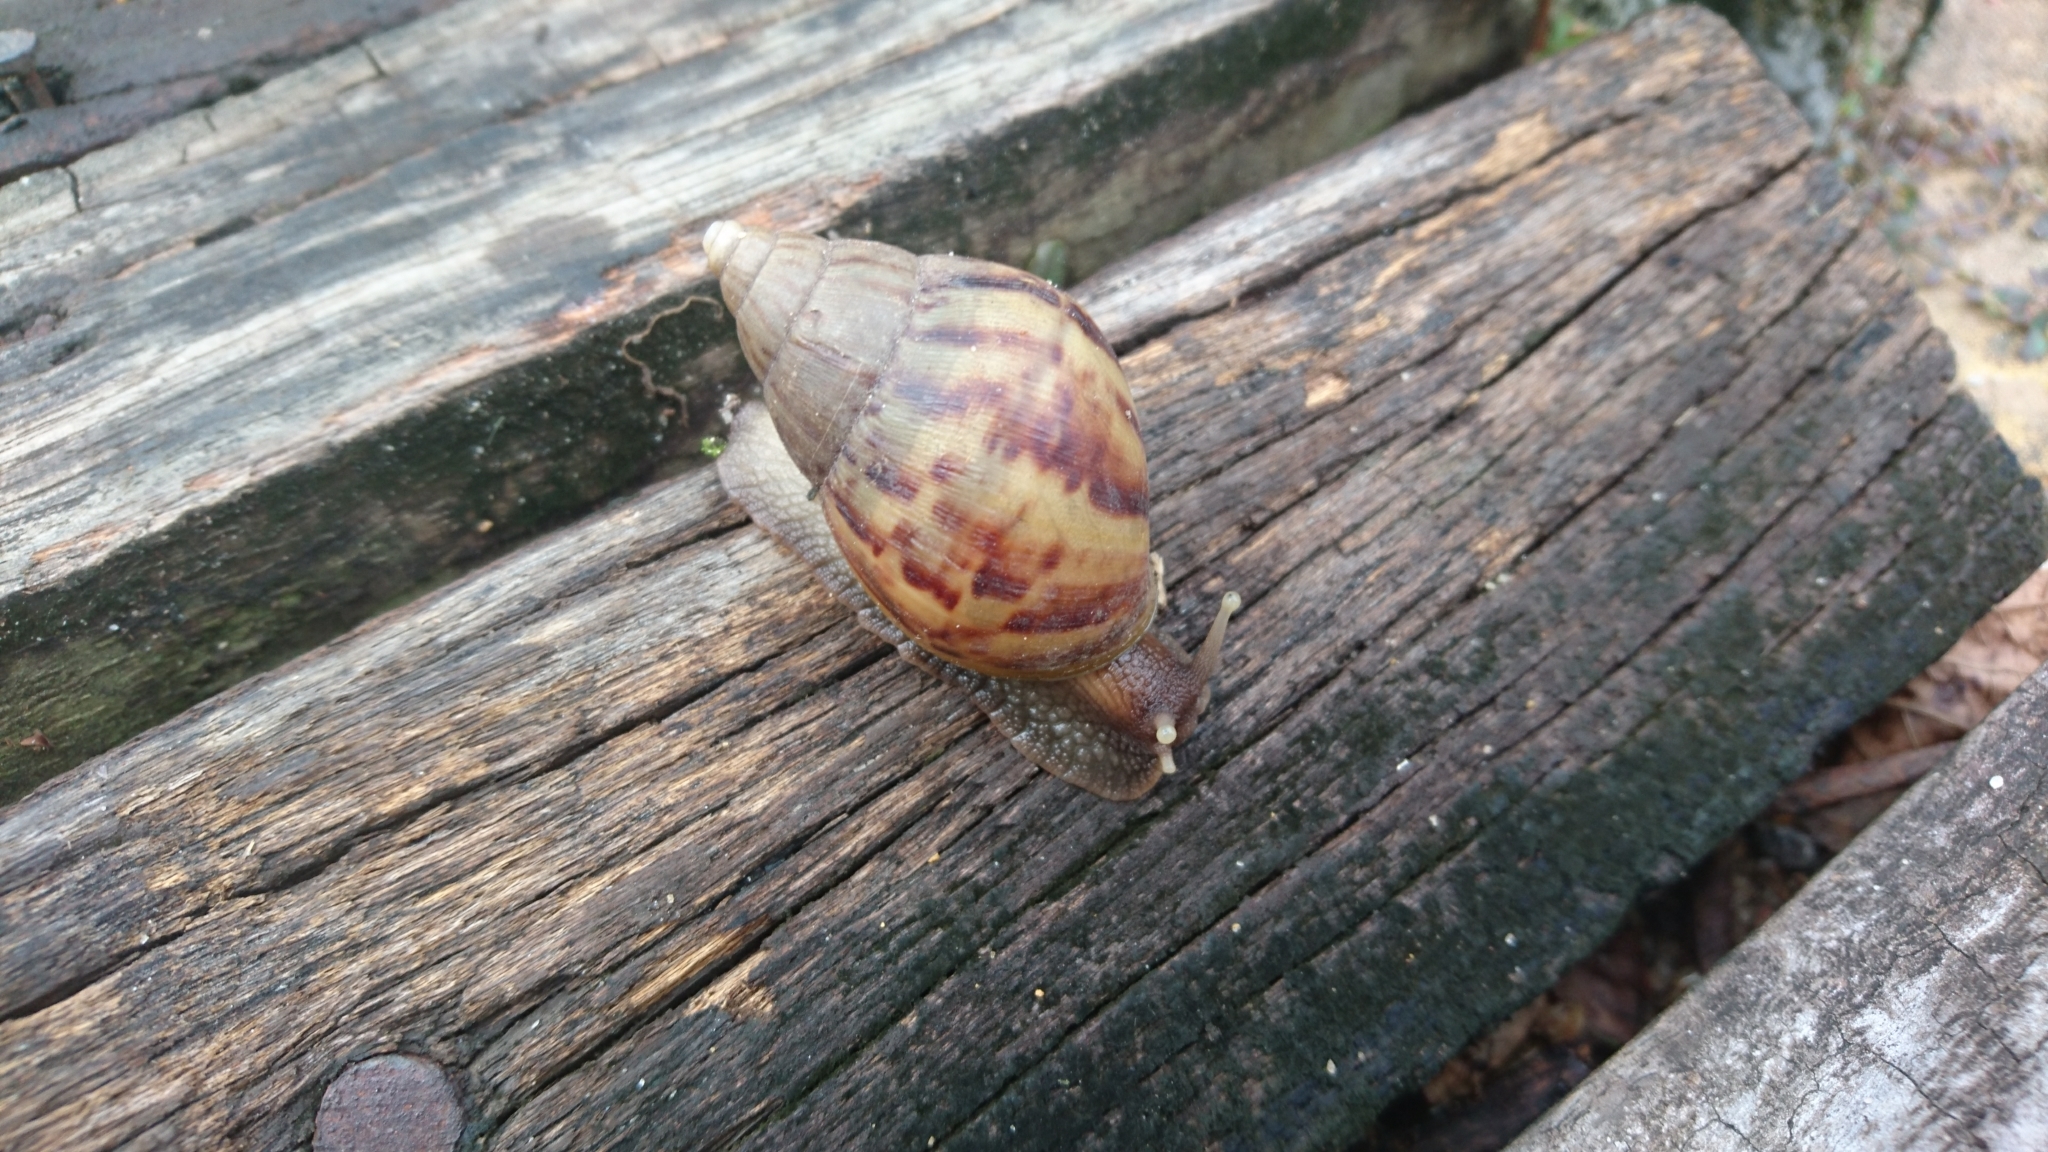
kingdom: Animalia
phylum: Mollusca
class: Gastropoda
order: Stylommatophora
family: Achatinidae
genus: Lissachatina
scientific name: Lissachatina fulica
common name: Giant african snail
